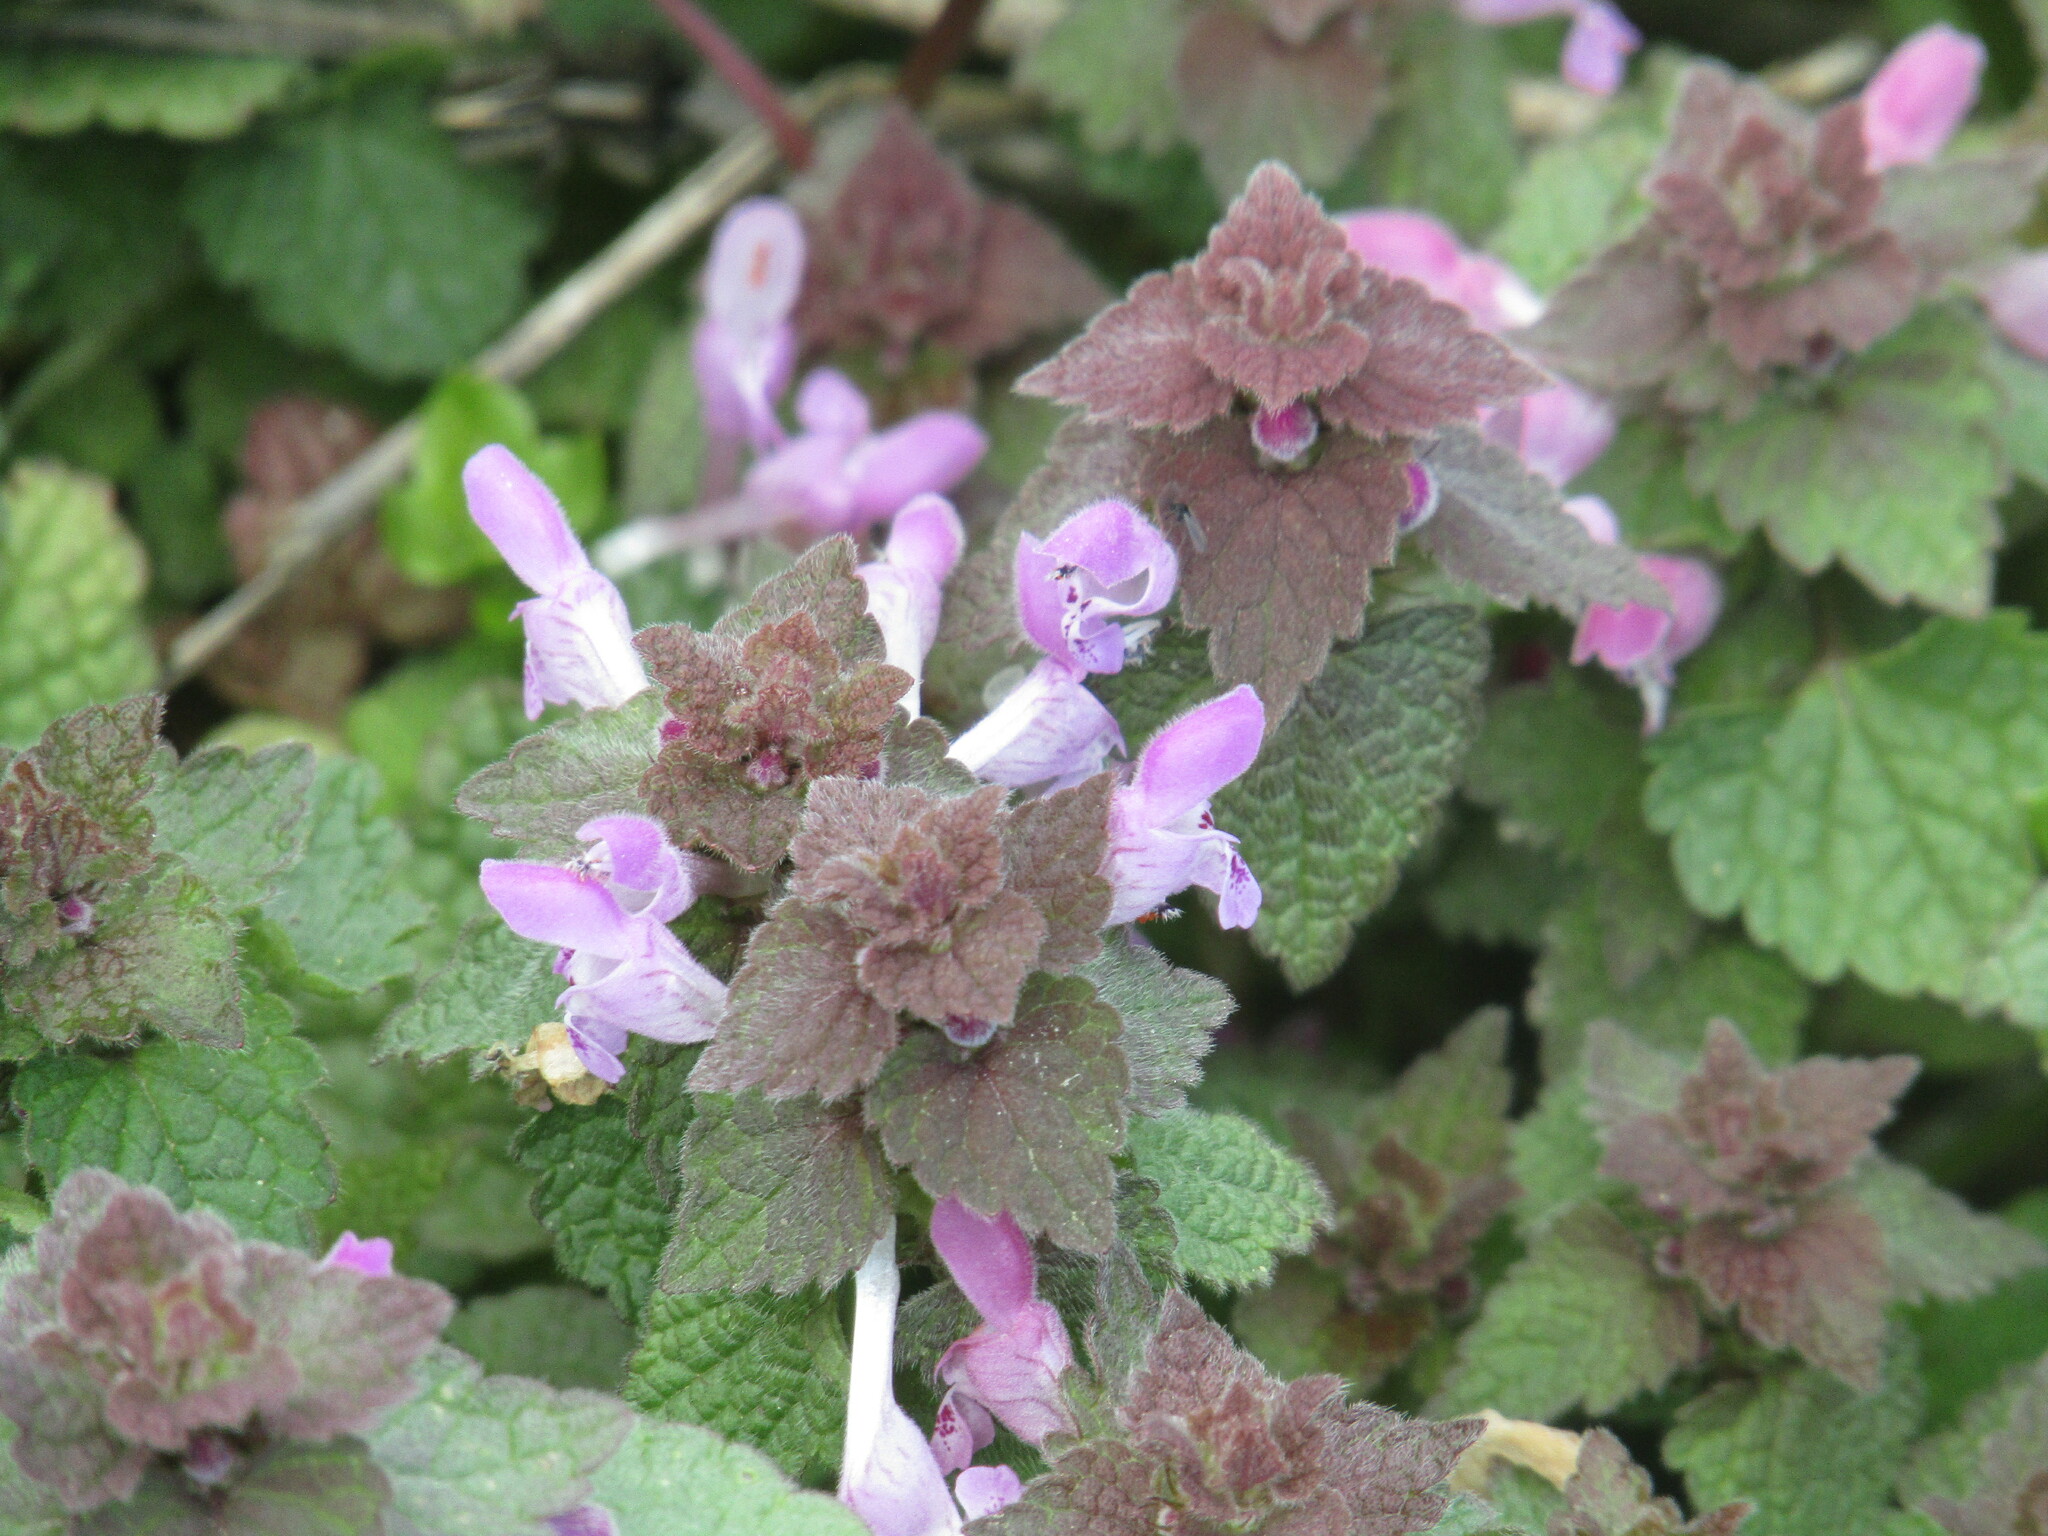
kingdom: Plantae
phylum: Tracheophyta
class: Magnoliopsida
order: Lamiales
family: Lamiaceae
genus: Lamium
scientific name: Lamium purpureum
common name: Red dead-nettle
